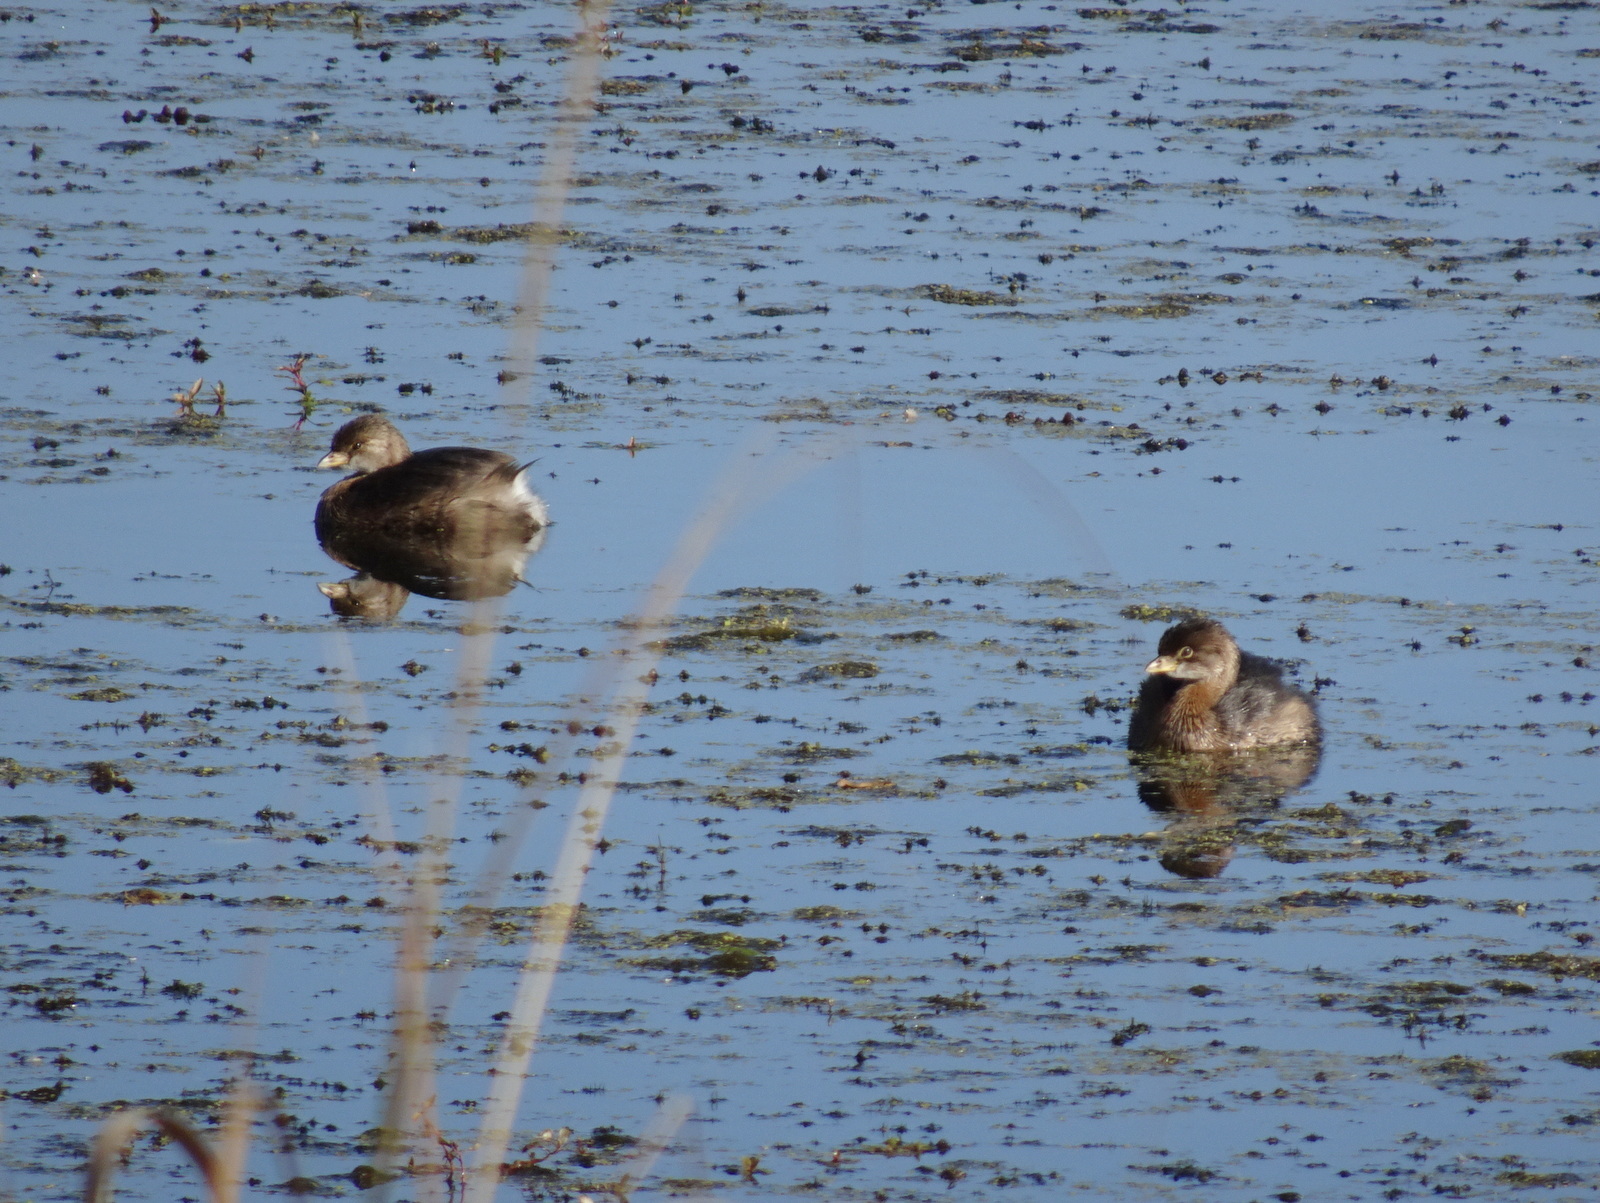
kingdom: Animalia
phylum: Chordata
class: Aves
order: Podicipediformes
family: Podicipedidae
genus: Podilymbus
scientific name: Podilymbus podiceps
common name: Pied-billed grebe
